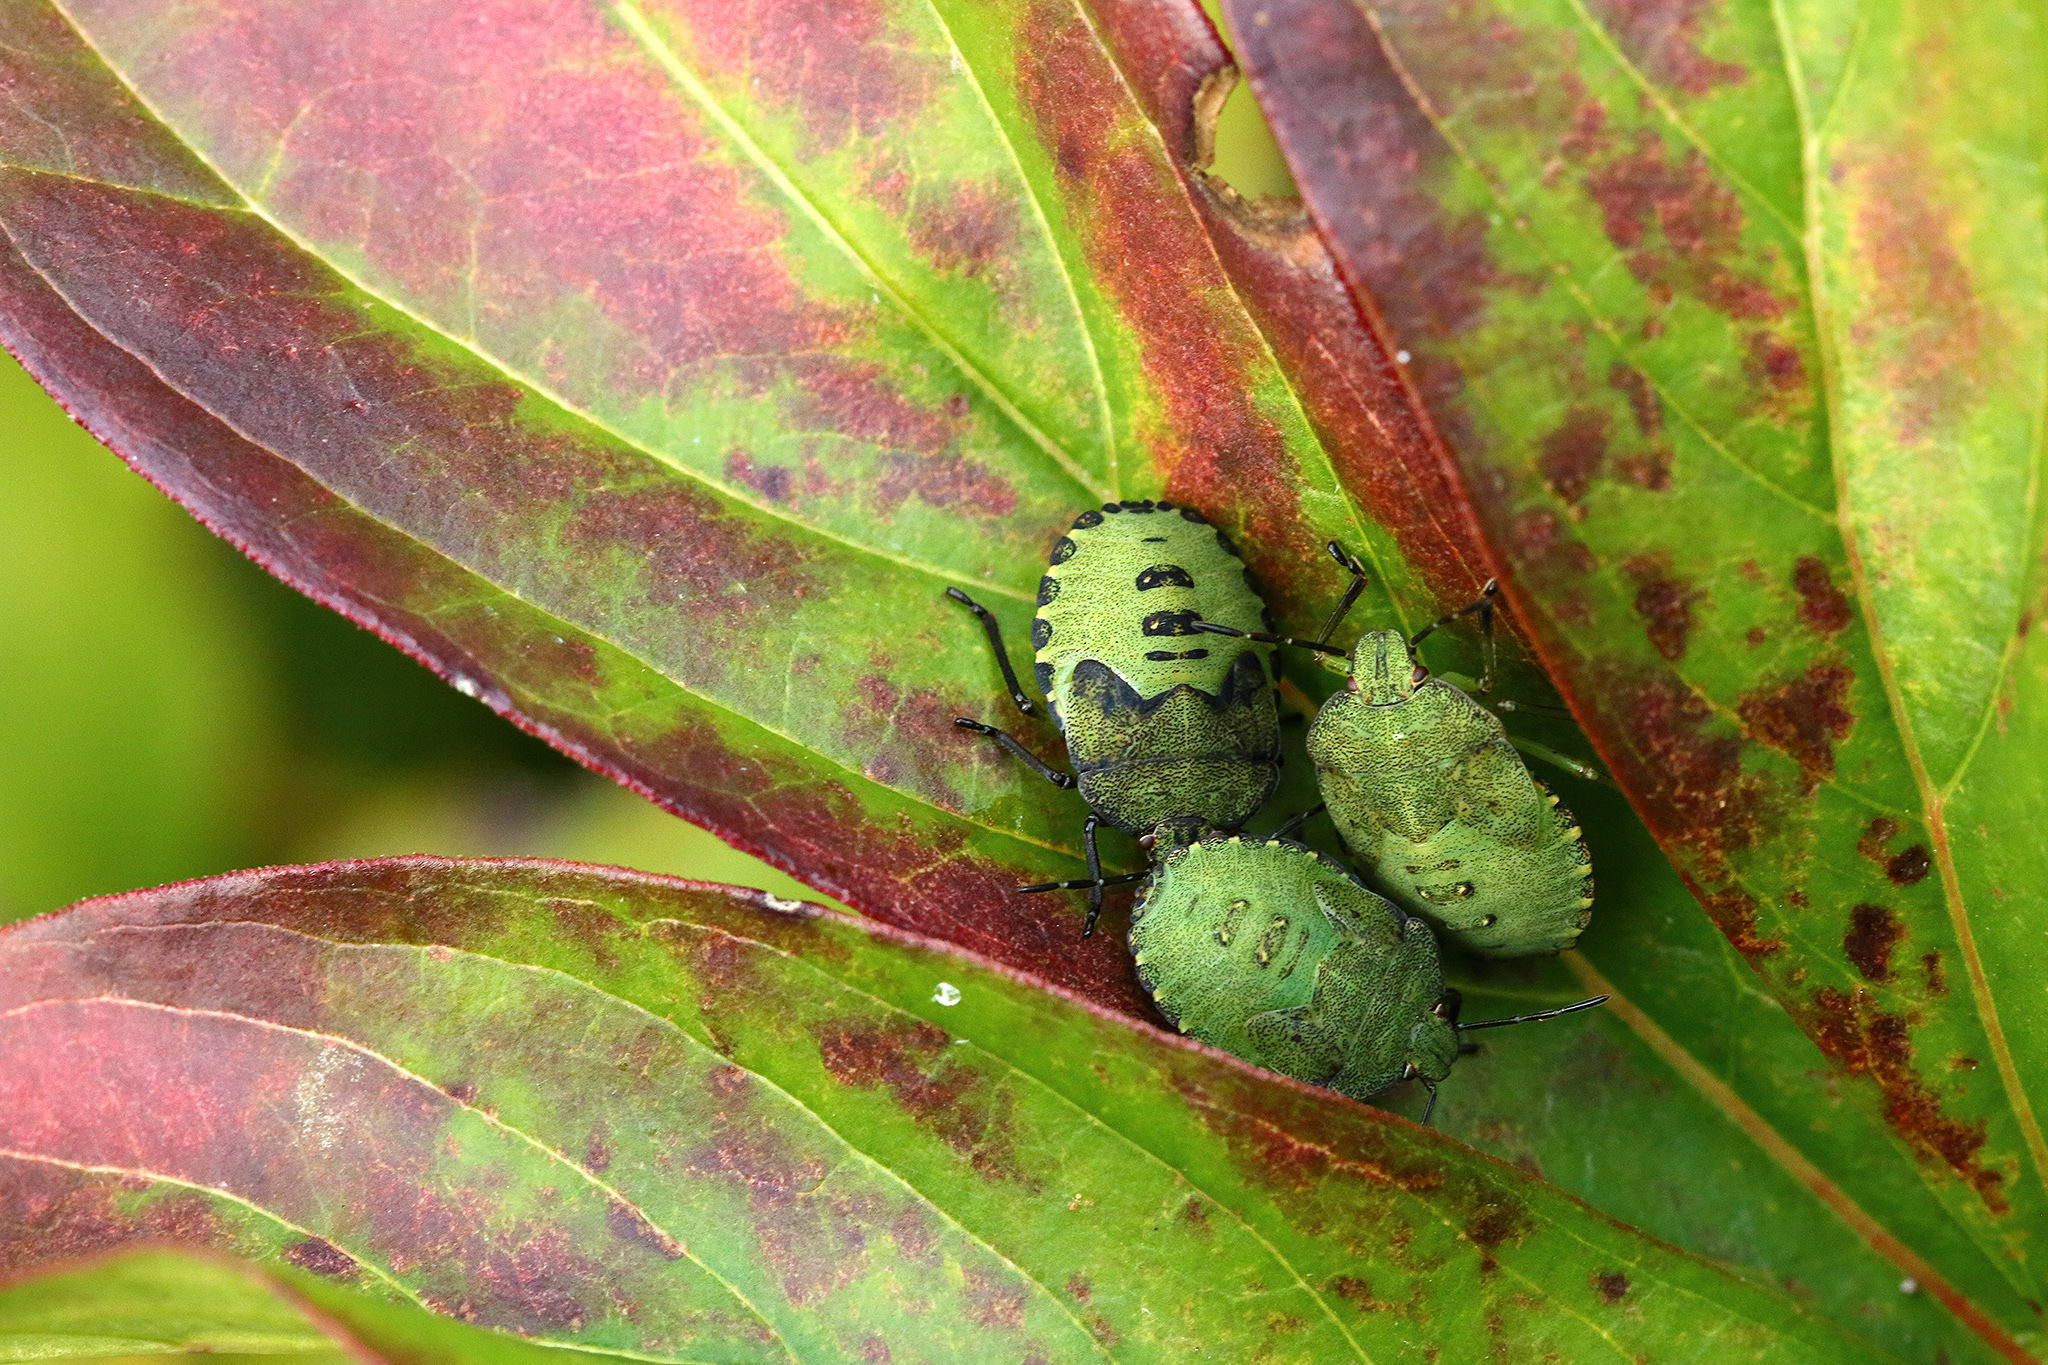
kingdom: Animalia
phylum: Arthropoda
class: Insecta
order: Hemiptera
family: Pentatomidae
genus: Palomena
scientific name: Palomena prasina
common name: Green shieldbug
